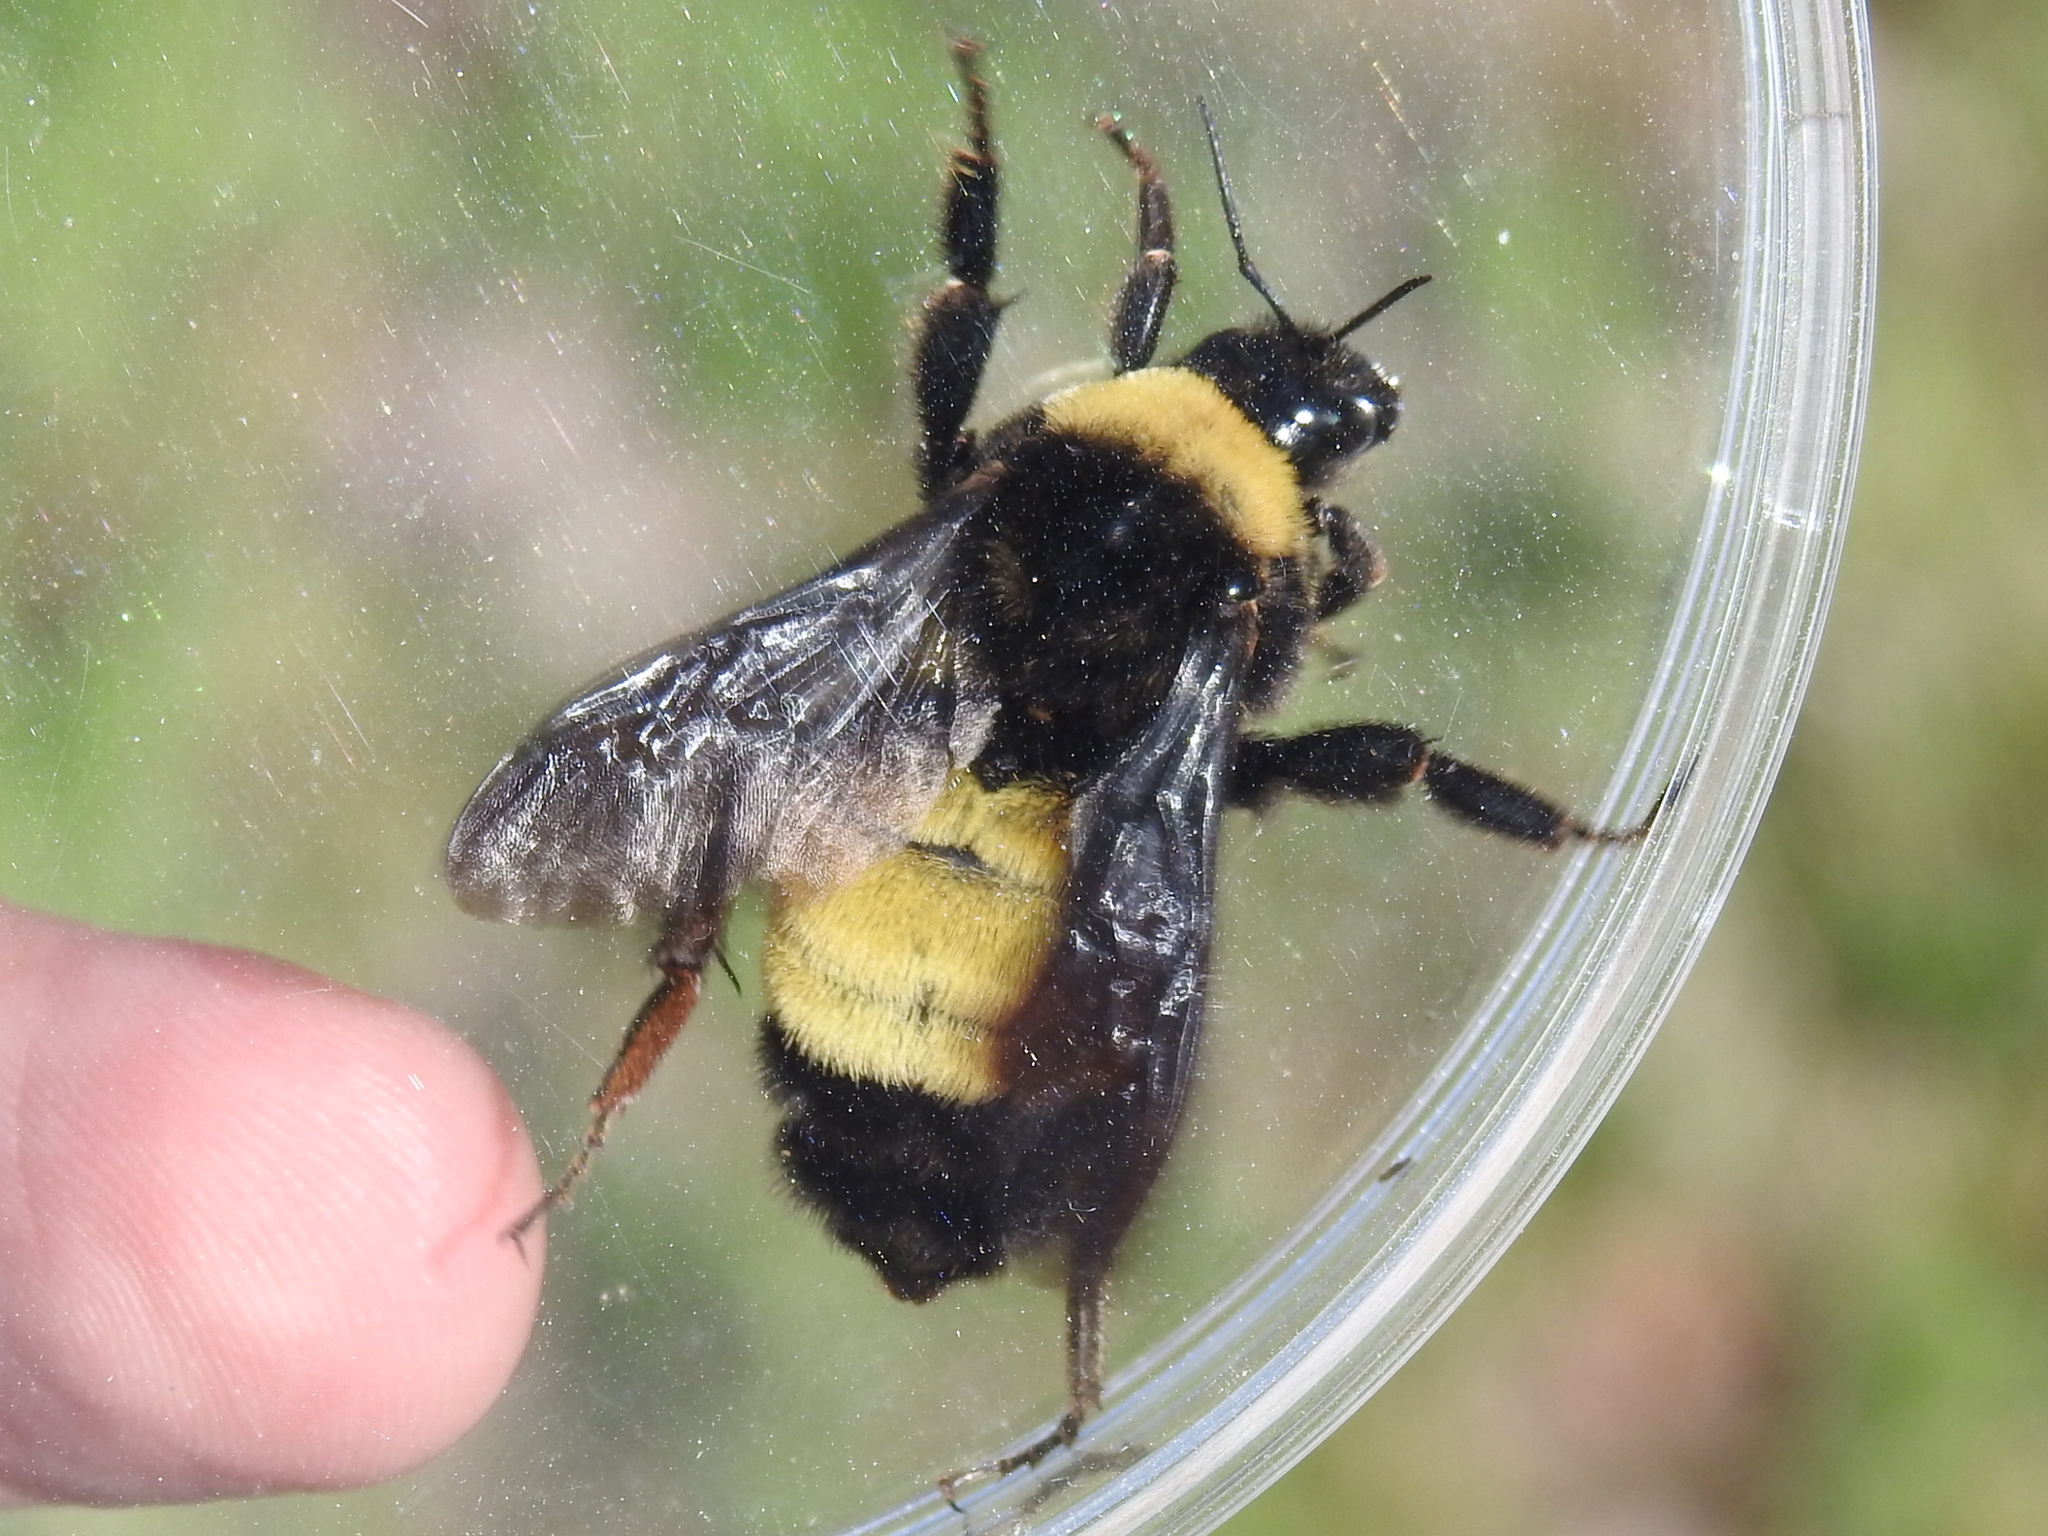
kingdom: Animalia
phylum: Arthropoda
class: Insecta
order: Hymenoptera
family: Apidae
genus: Bombus
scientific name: Bombus pensylvanicus
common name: Bumble bee
